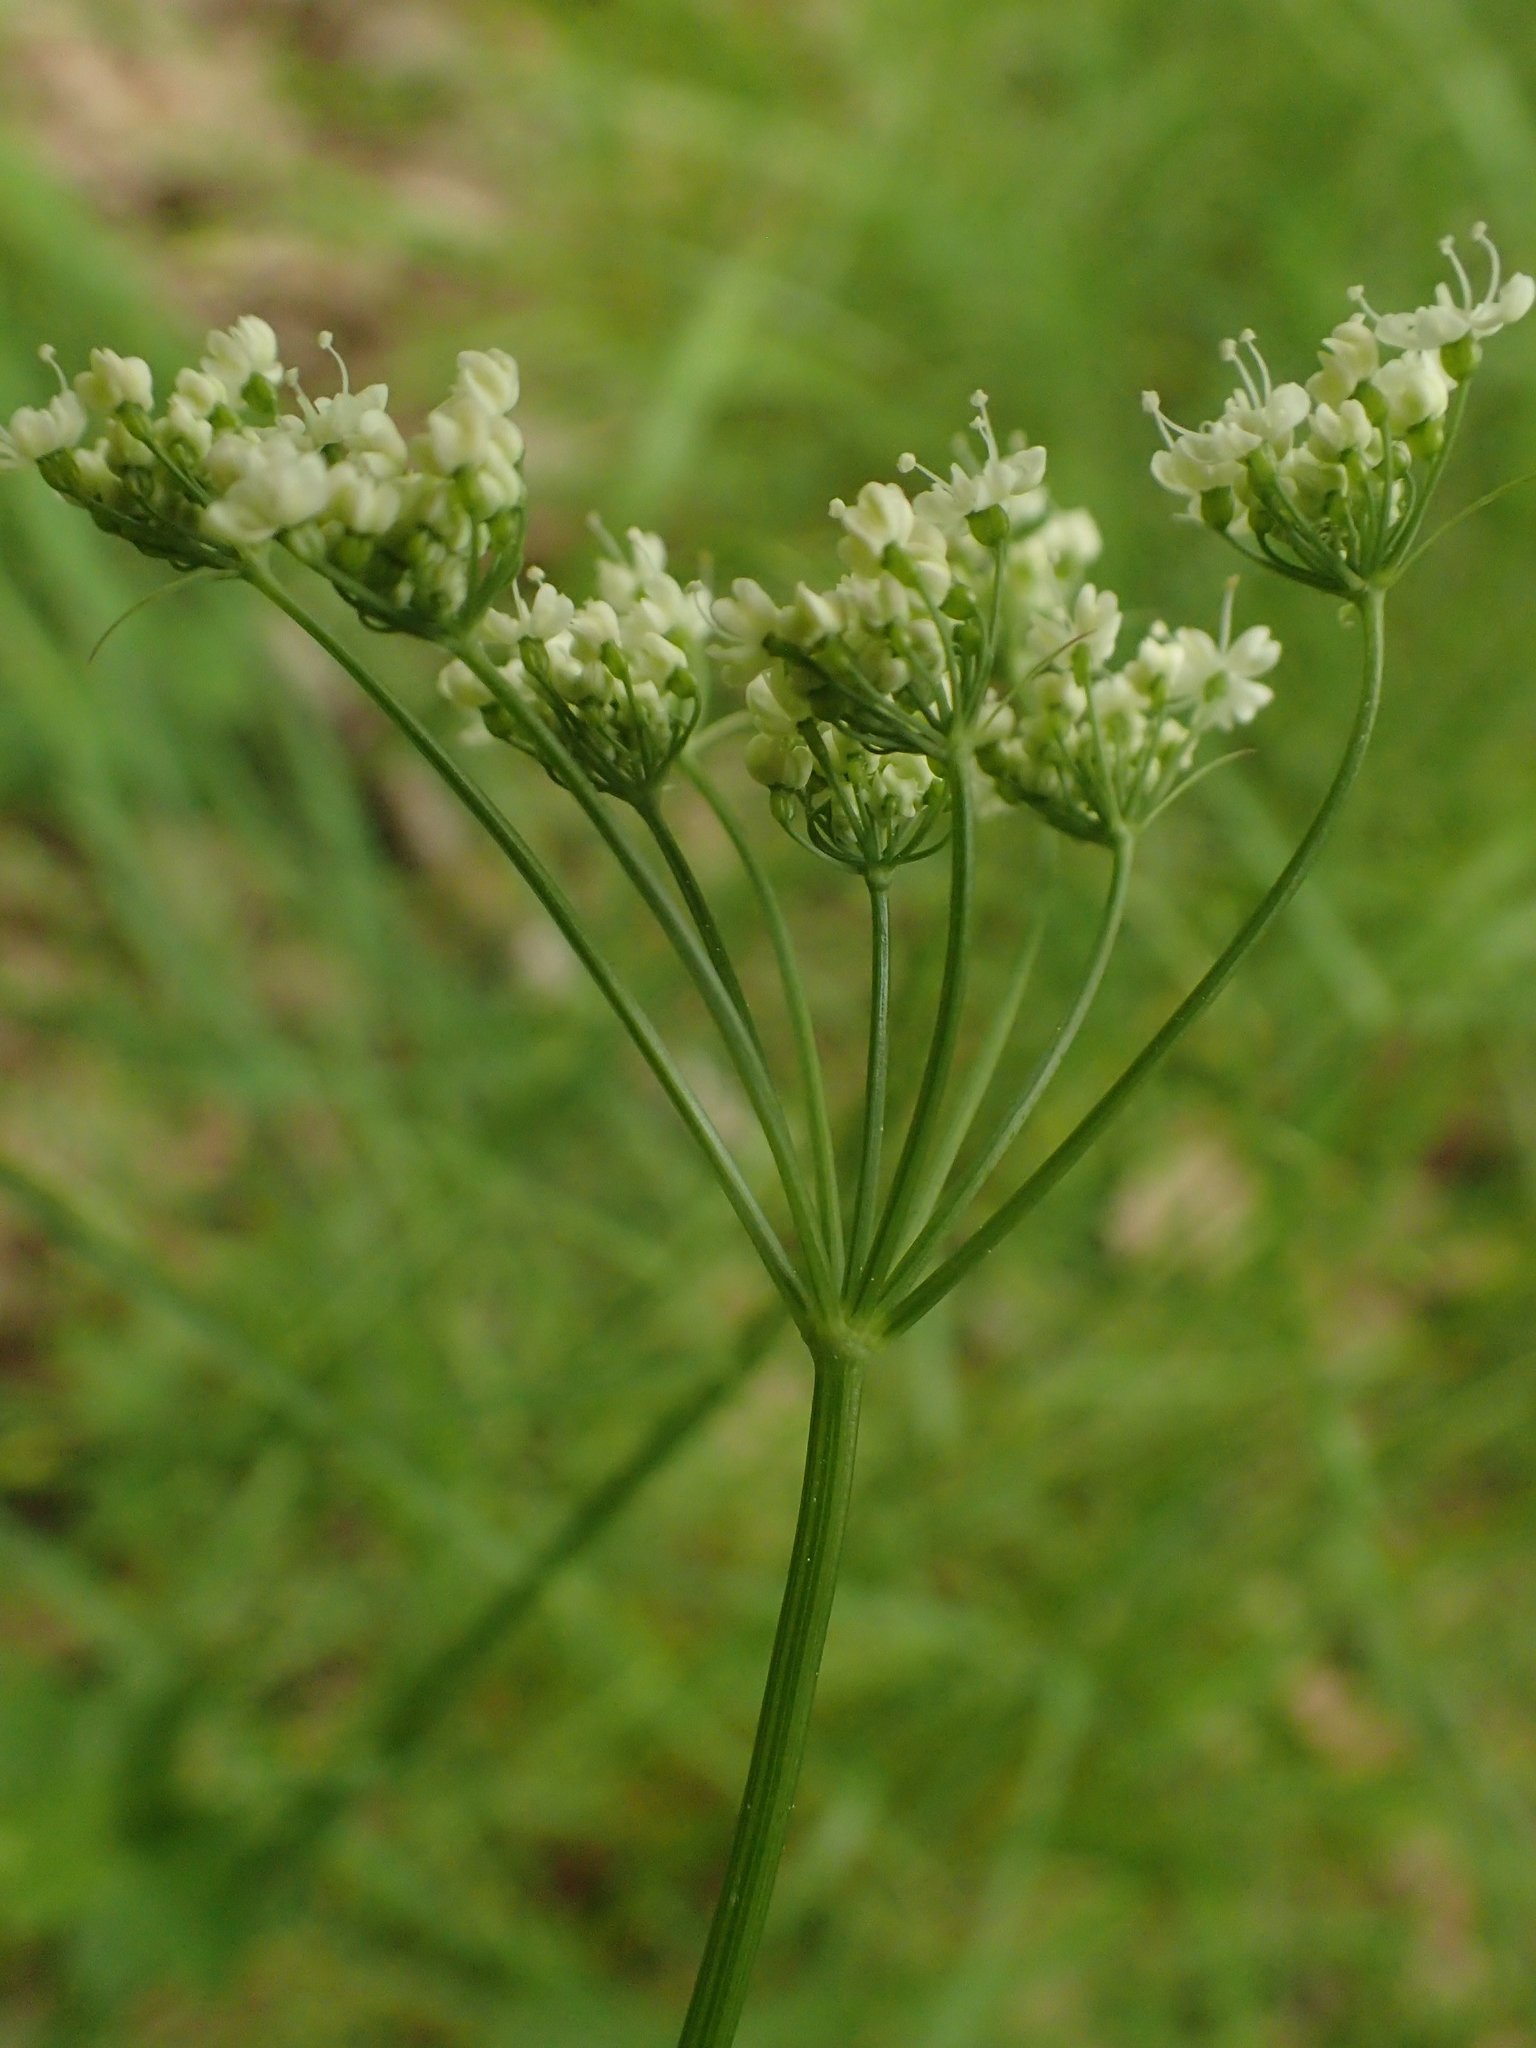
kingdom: Plantae
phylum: Tracheophyta
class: Magnoliopsida
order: Apiales
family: Apiaceae
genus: Conopodium
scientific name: Conopodium majus
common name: Pignut
